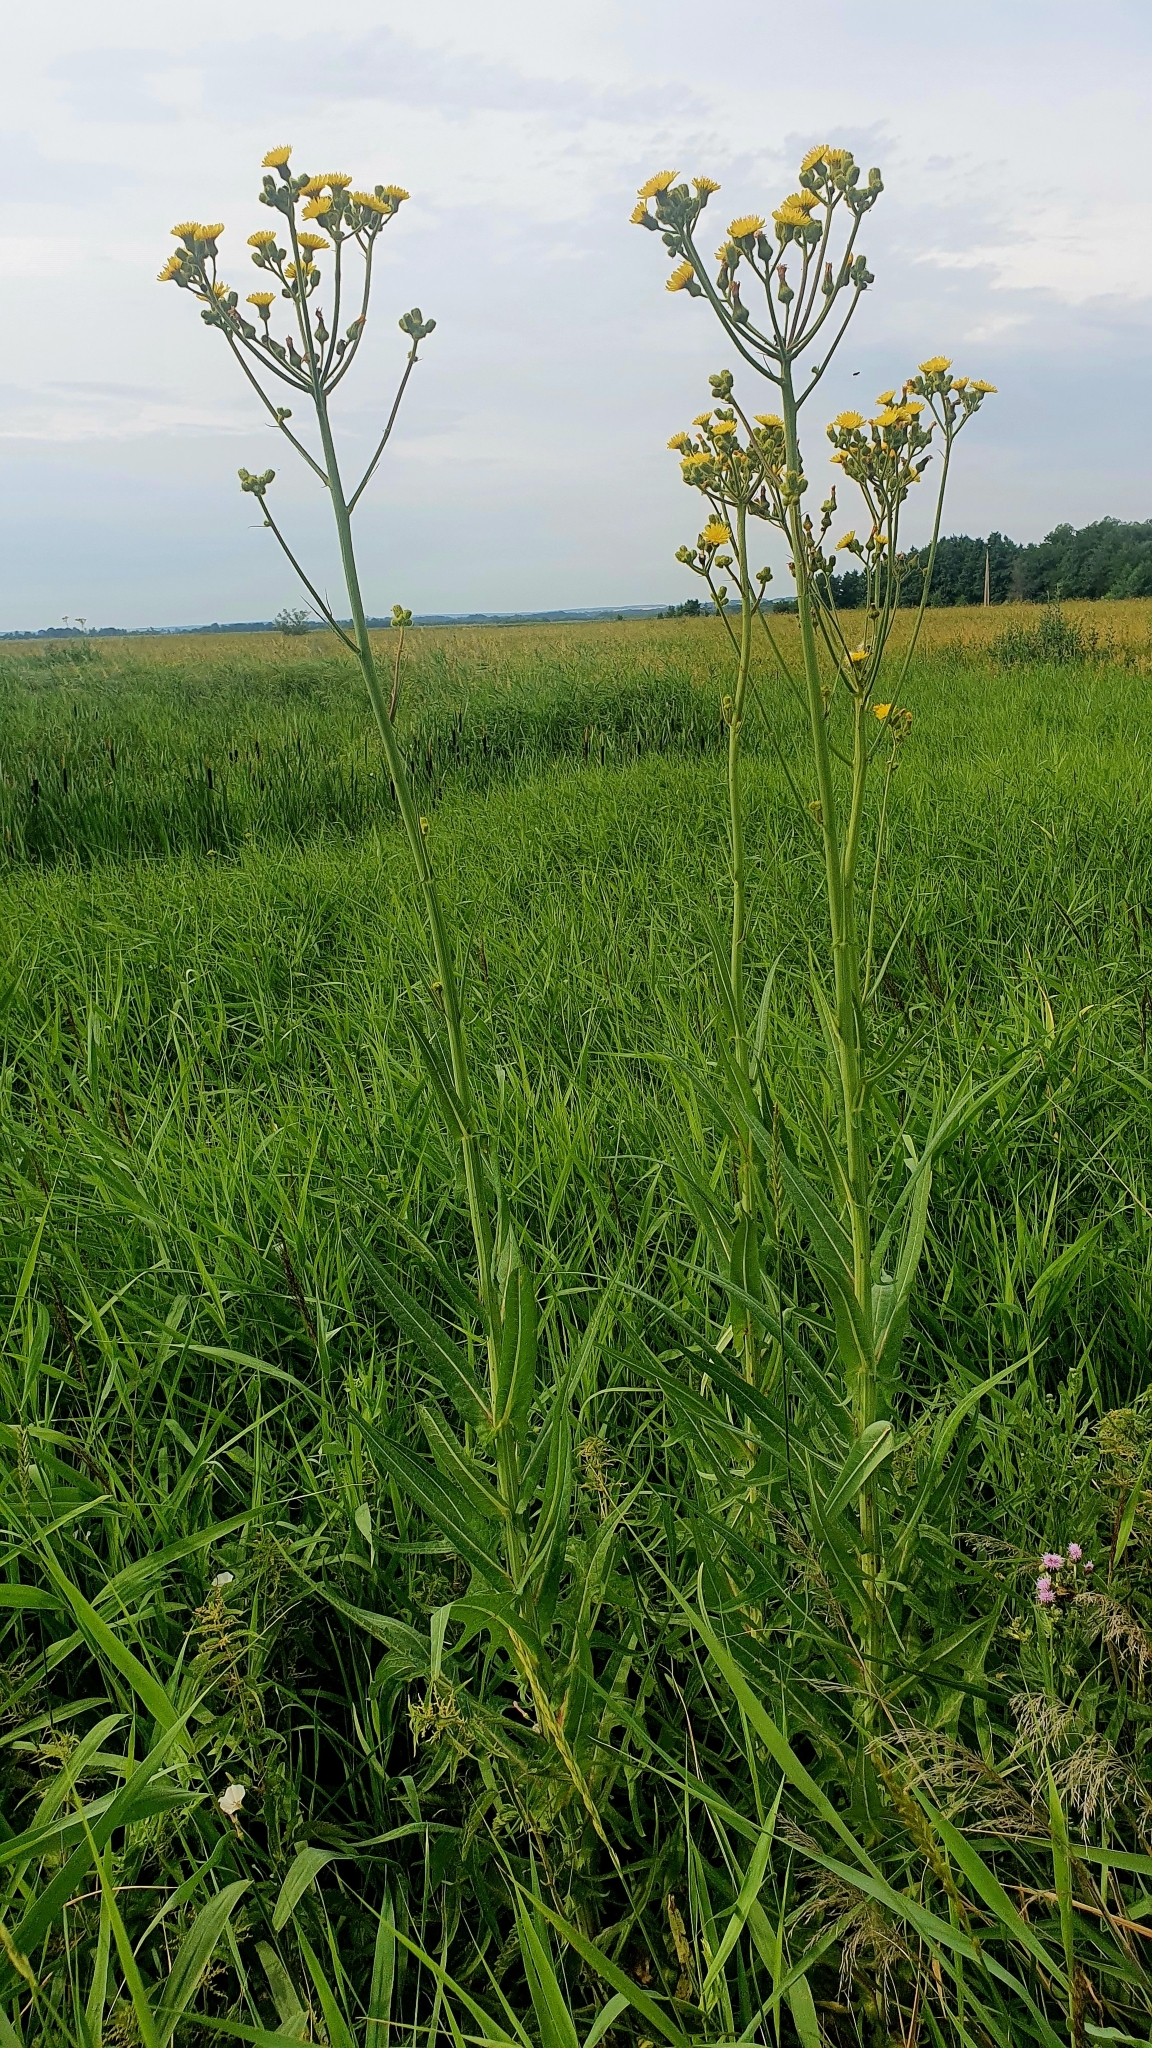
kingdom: Plantae
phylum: Tracheophyta
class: Magnoliopsida
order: Asterales
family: Asteraceae
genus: Sonchus
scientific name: Sonchus palustris
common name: Marsh sow-thistle
